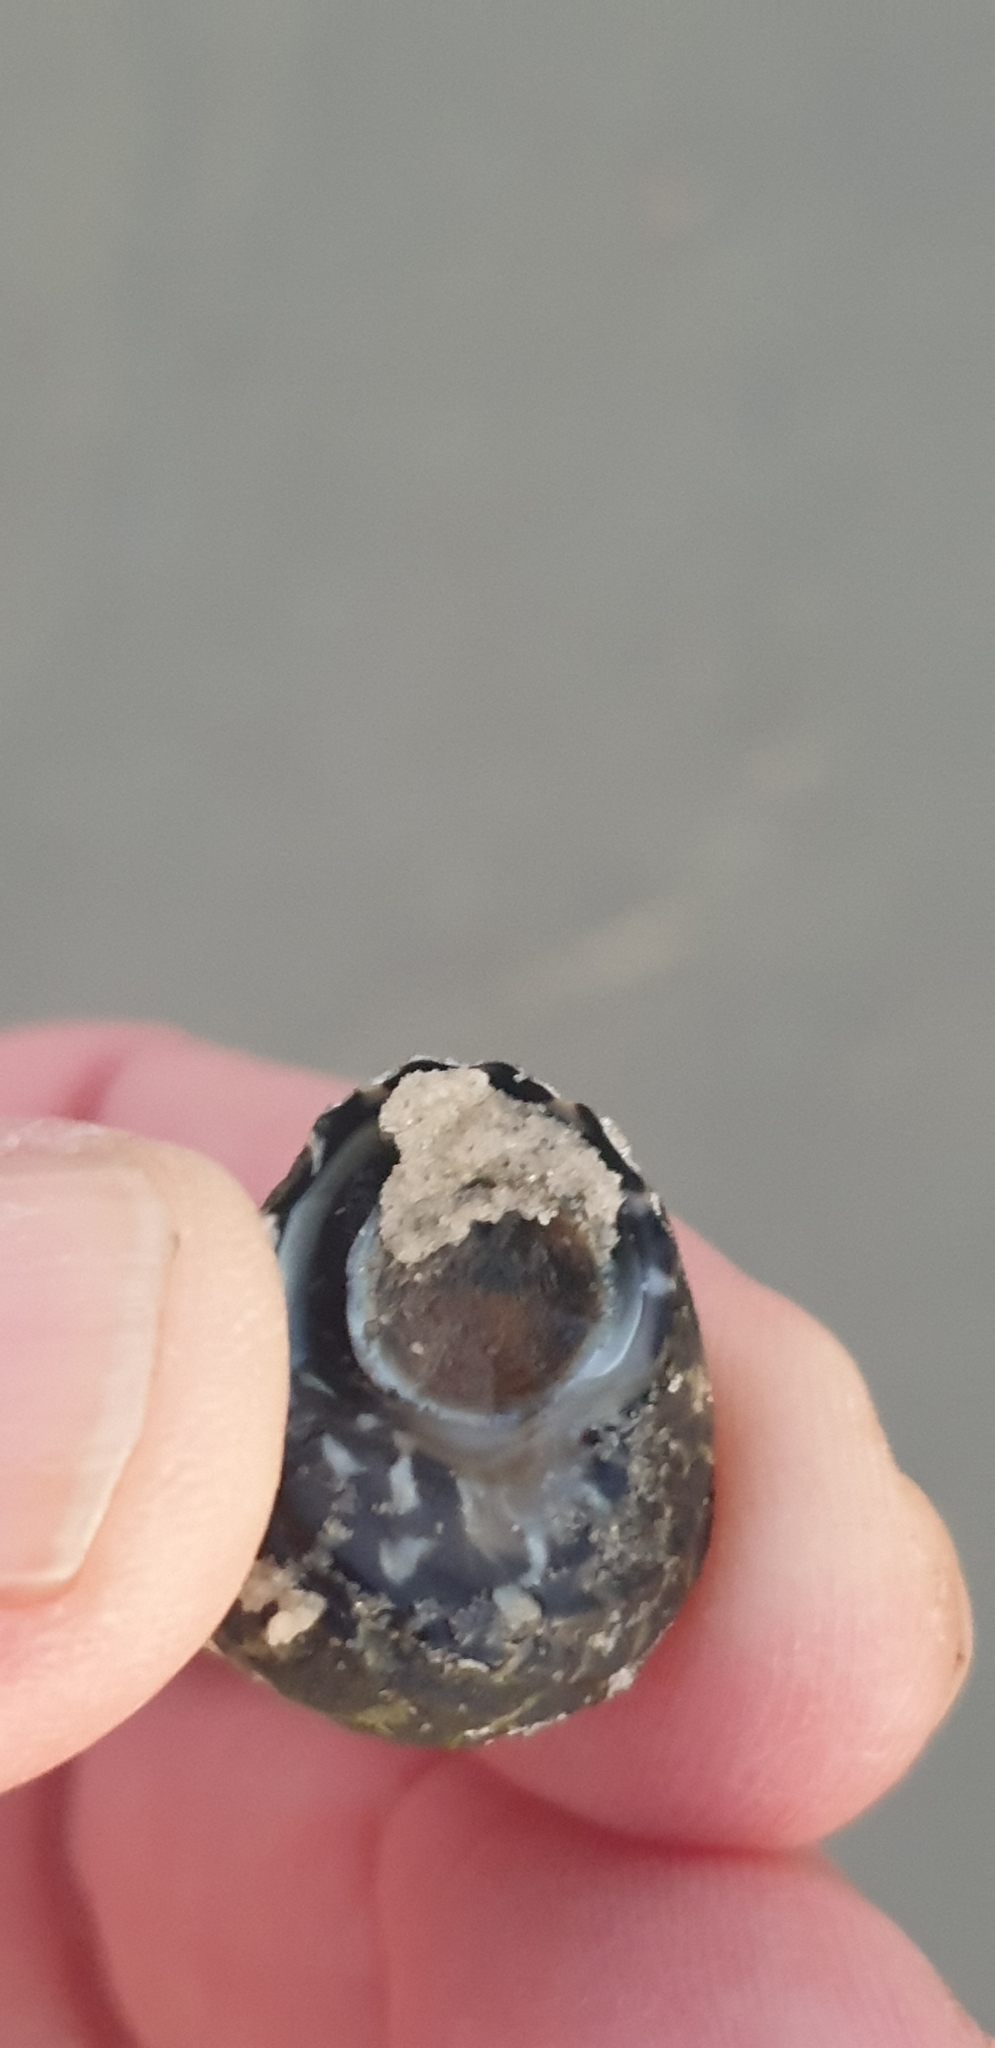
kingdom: Animalia
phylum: Mollusca
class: Gastropoda
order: Trochida
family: Trochidae
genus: Austrocochlea
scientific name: Austrocochlea porcata
